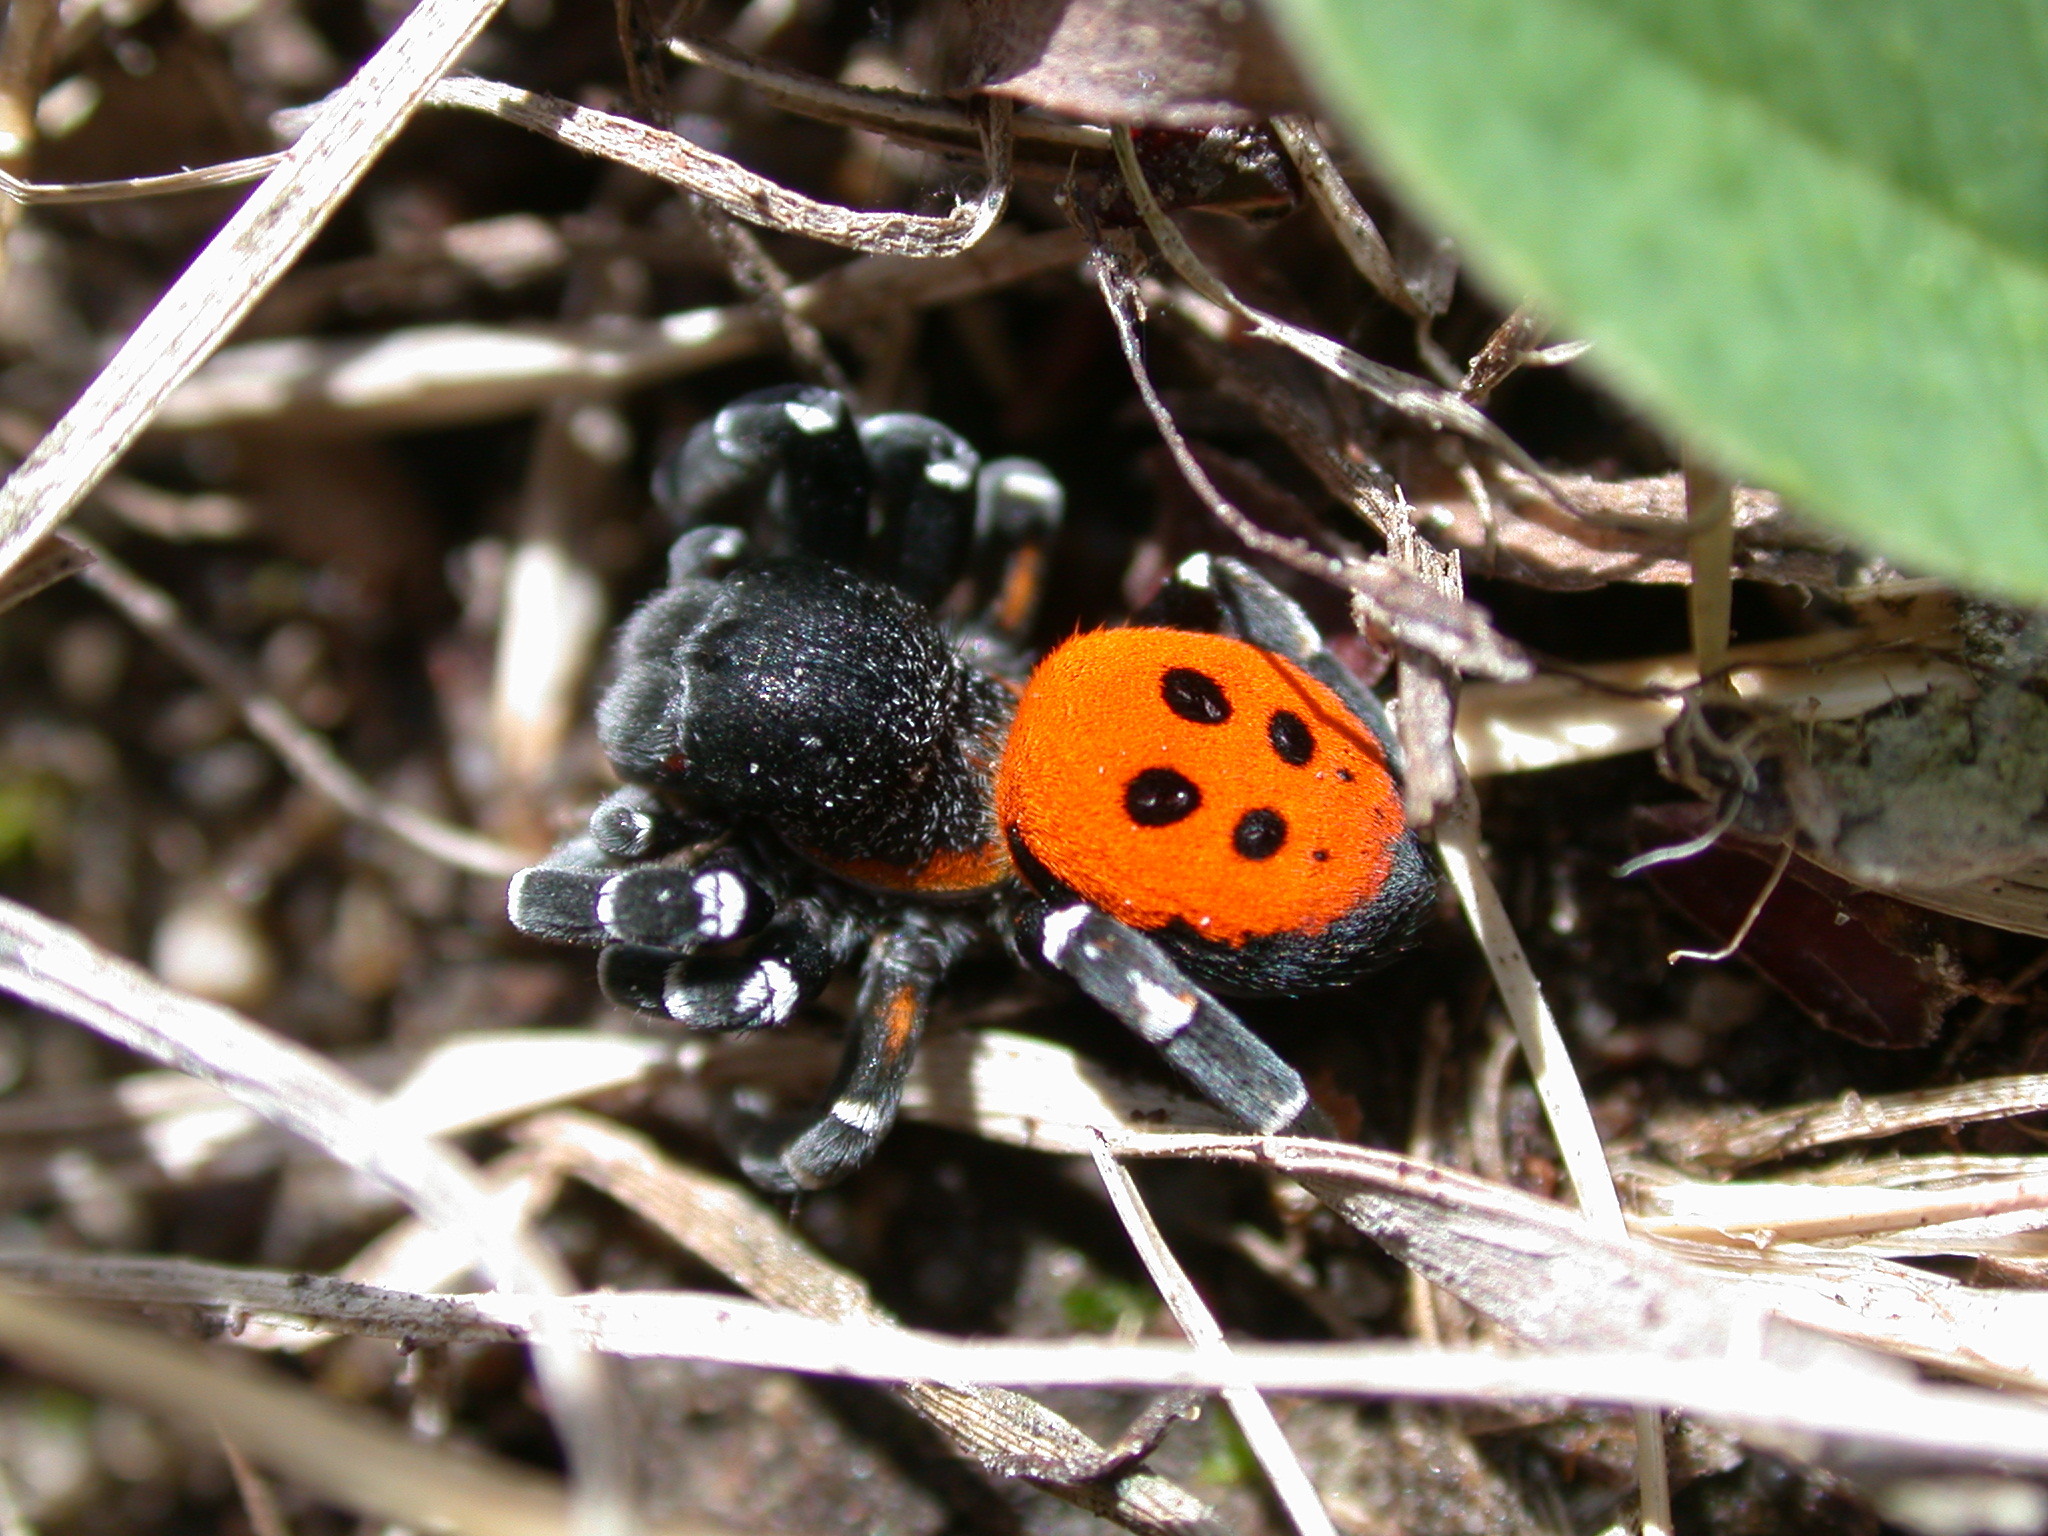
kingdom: Animalia
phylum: Arthropoda
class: Arachnida
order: Araneae
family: Eresidae
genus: Eresus
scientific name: Eresus sandaliatus
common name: Ladybird spider
